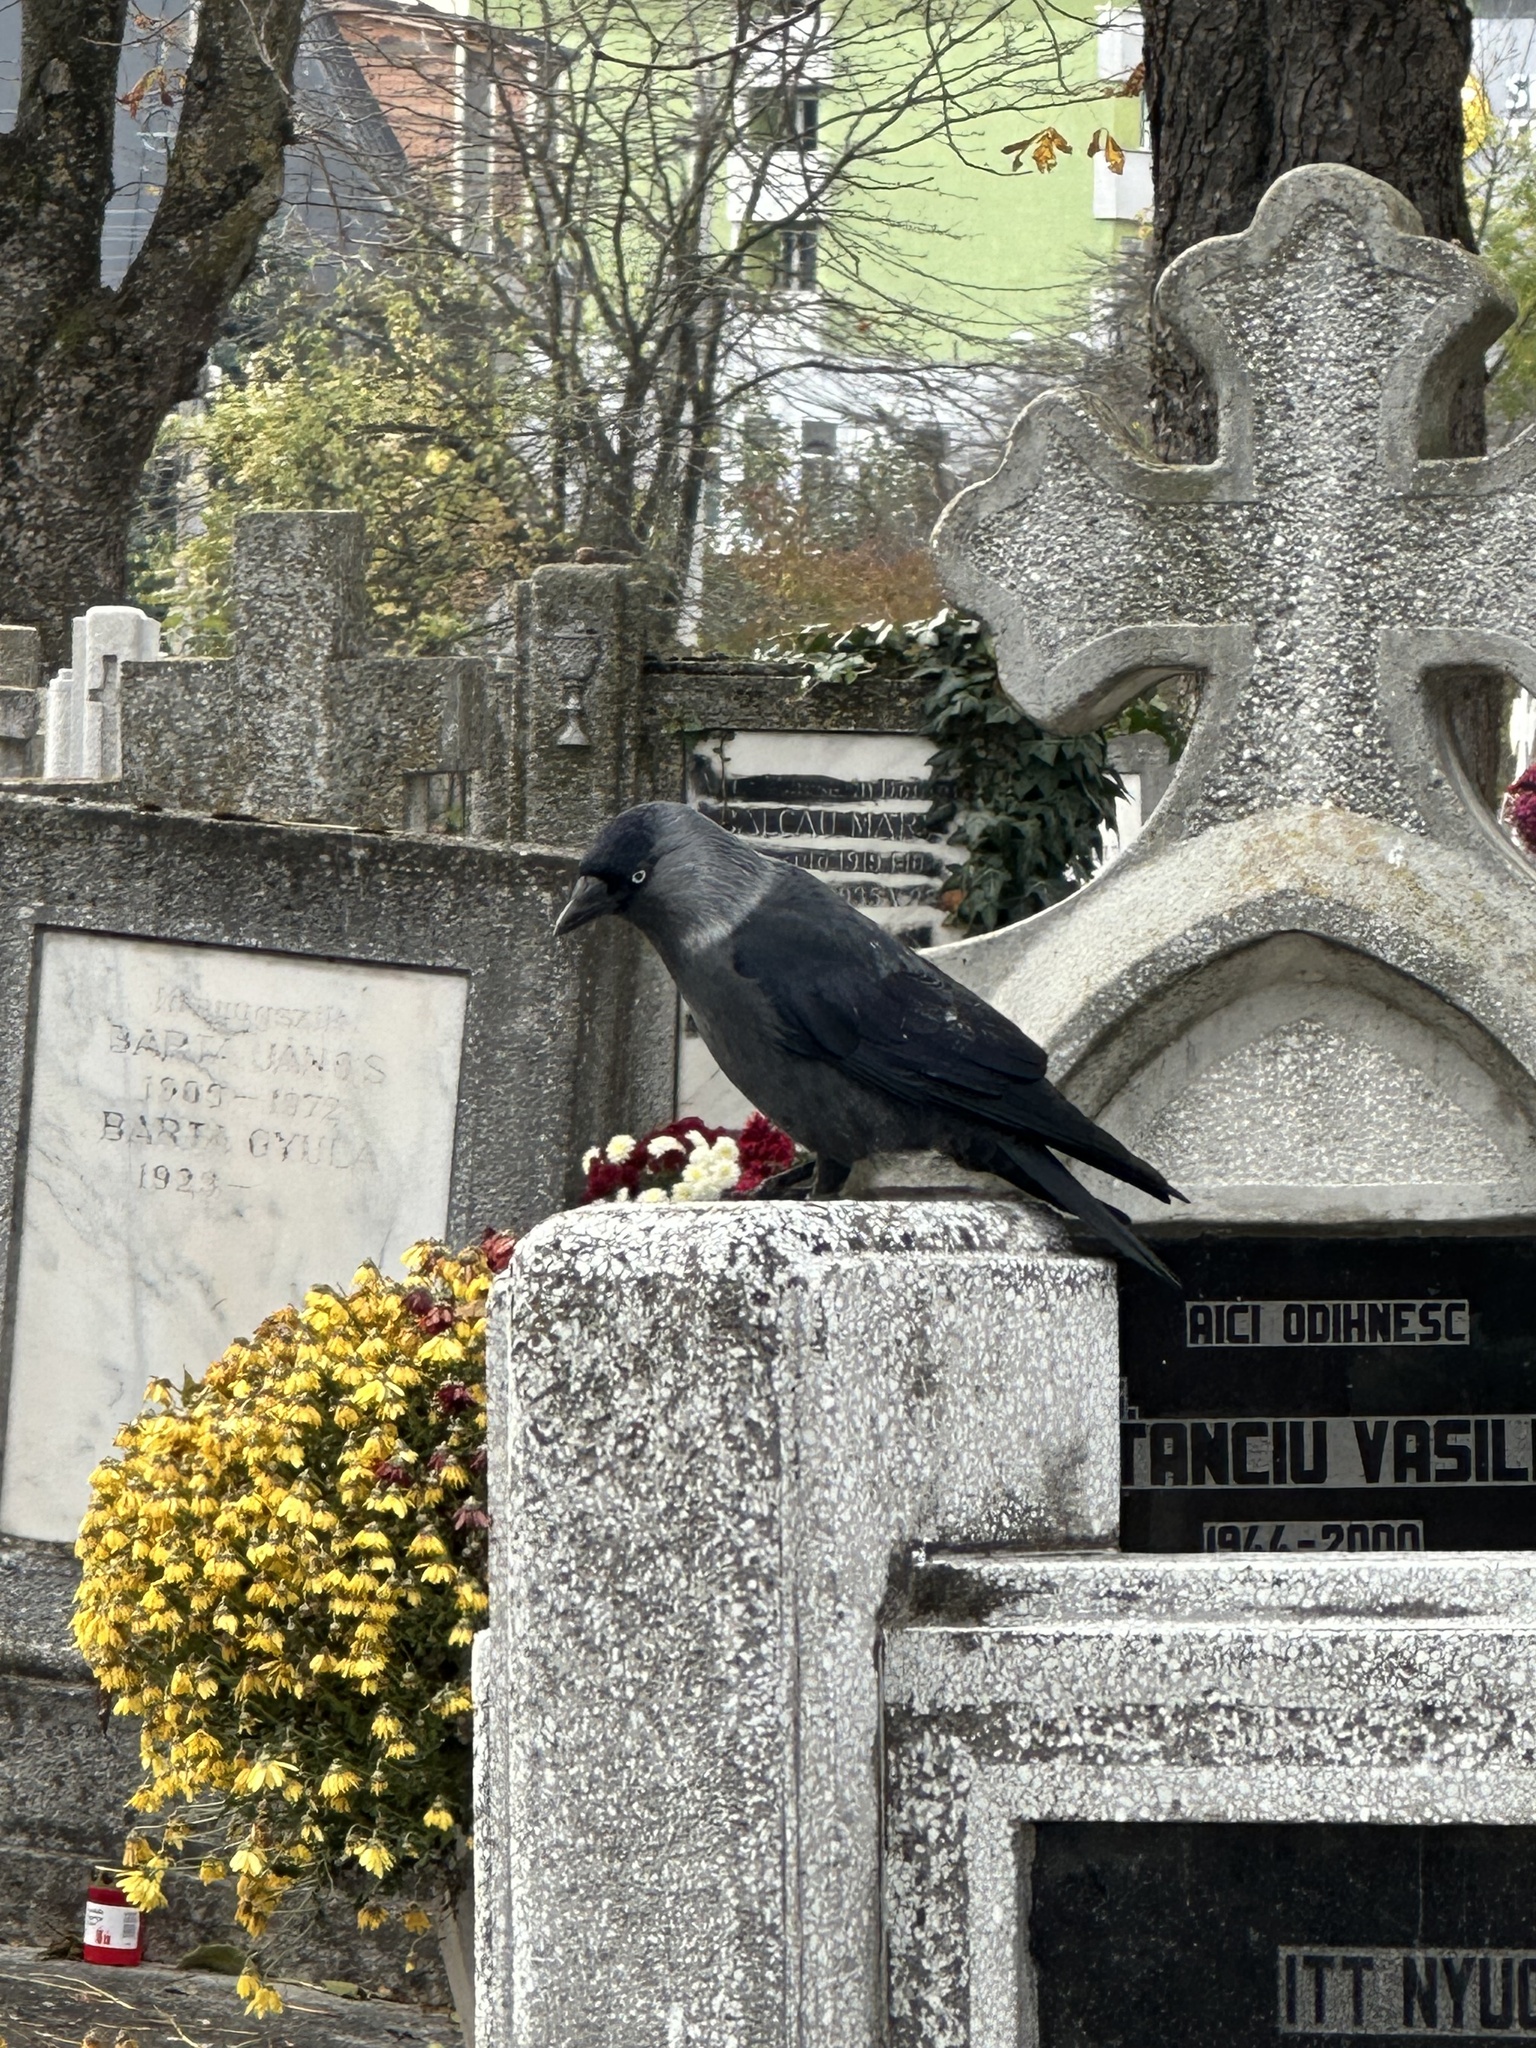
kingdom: Animalia
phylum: Chordata
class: Aves
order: Passeriformes
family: Corvidae
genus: Coloeus
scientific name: Coloeus monedula
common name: Western jackdaw
